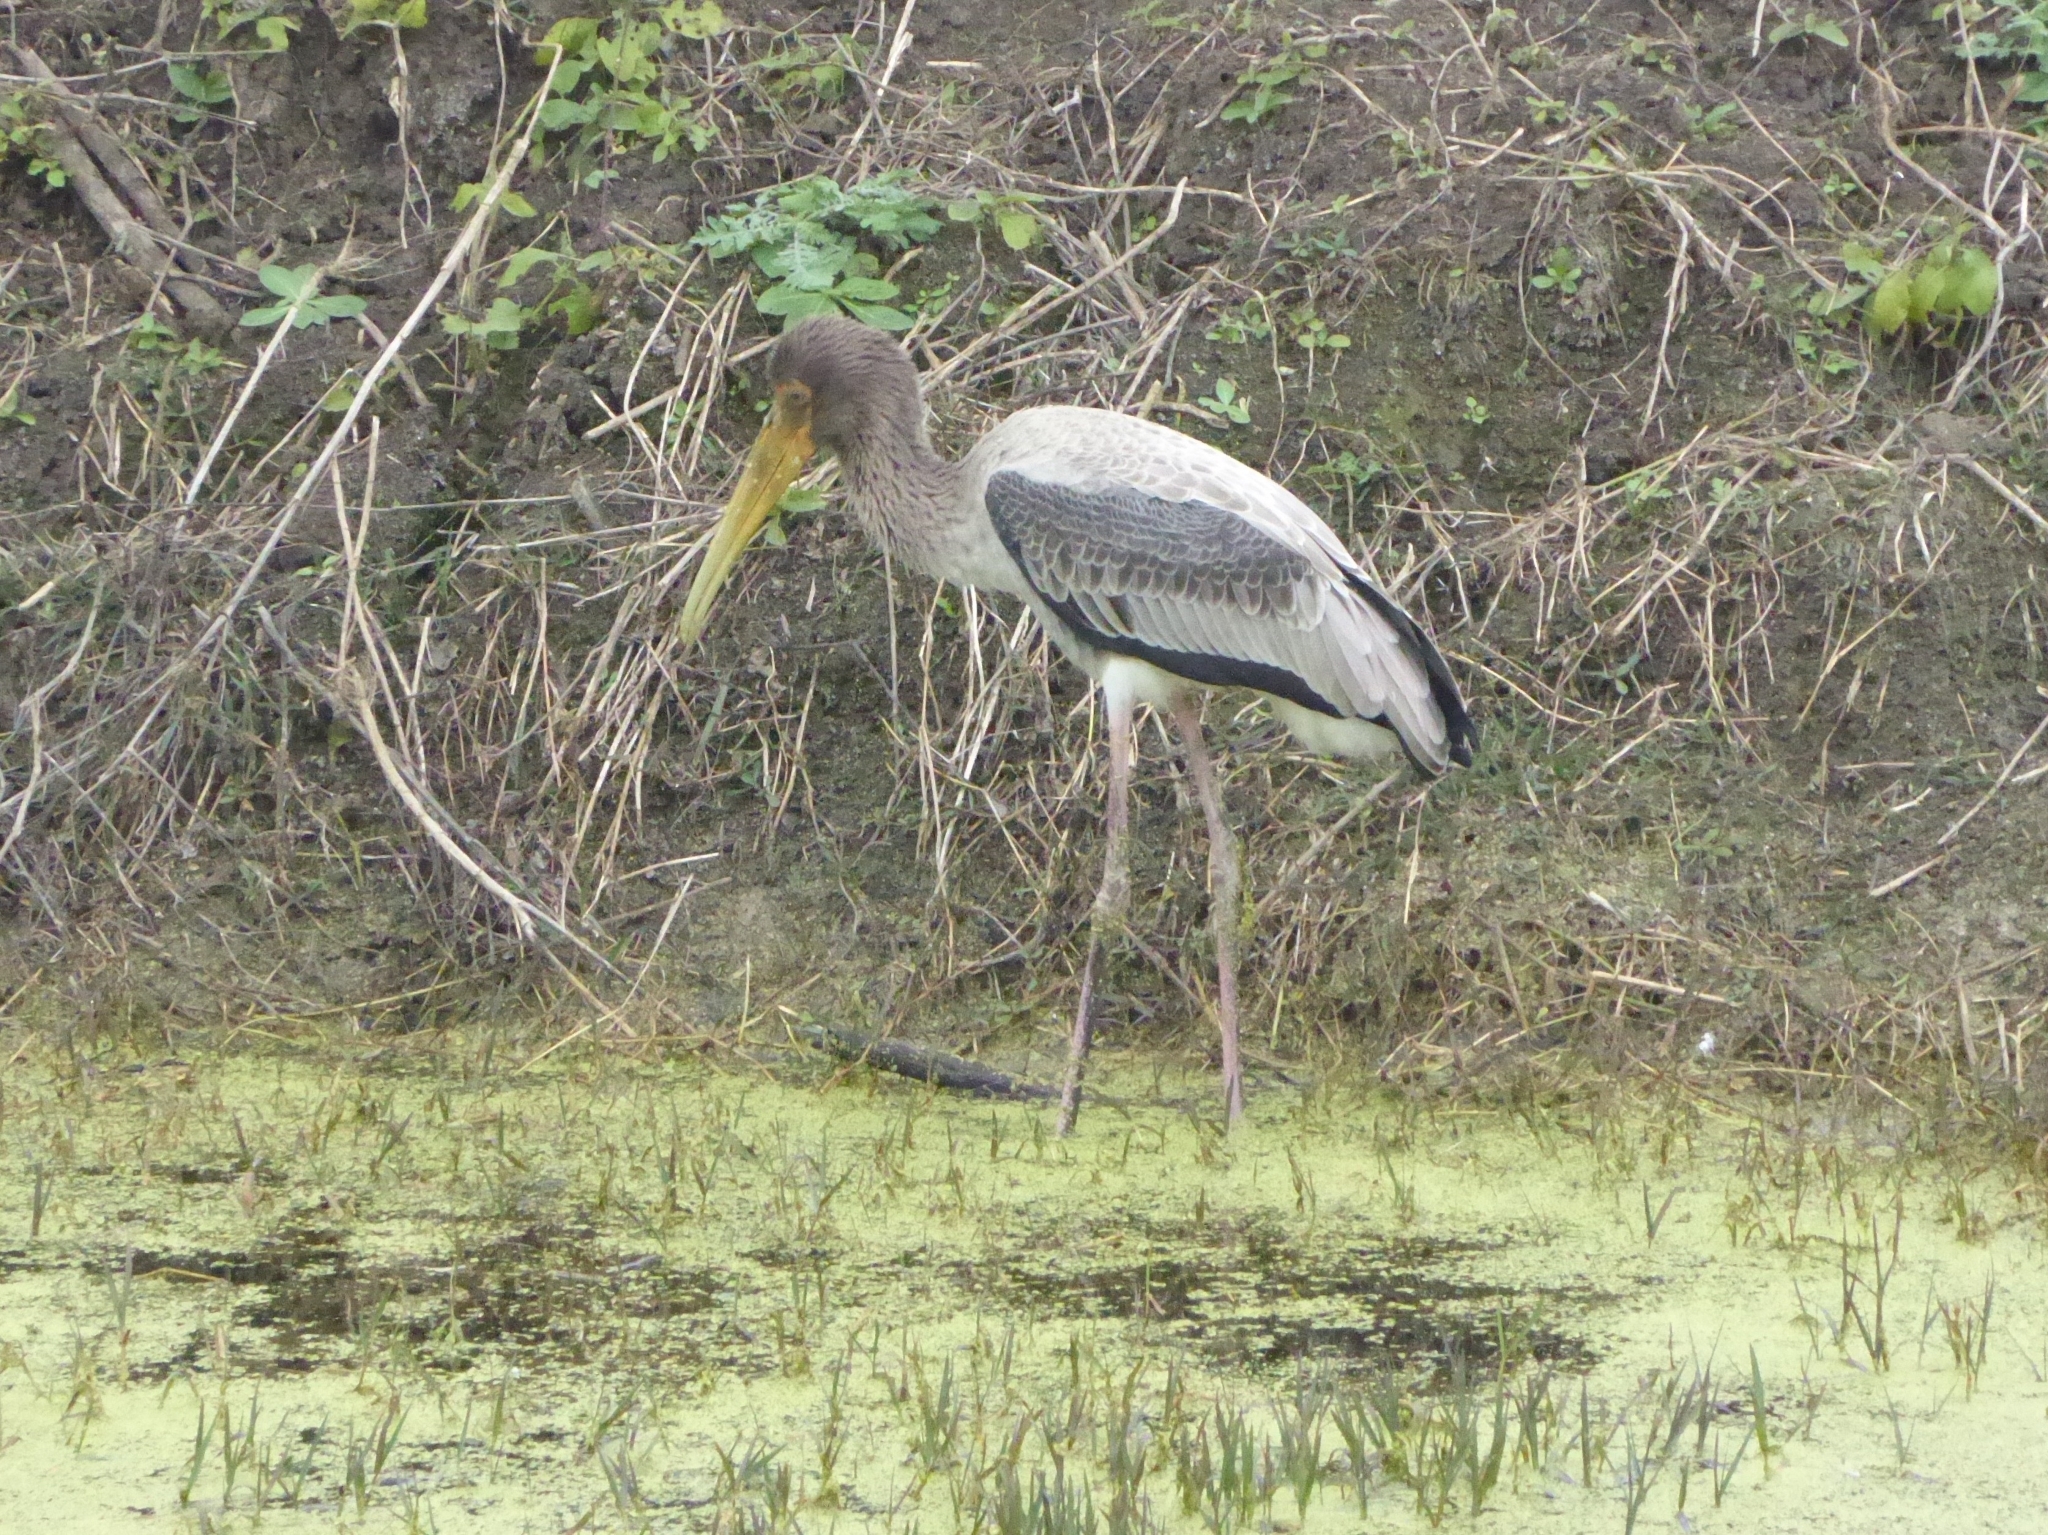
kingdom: Animalia
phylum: Chordata
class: Aves
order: Ciconiiformes
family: Ciconiidae
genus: Mycteria
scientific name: Mycteria leucocephala
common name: Painted stork
